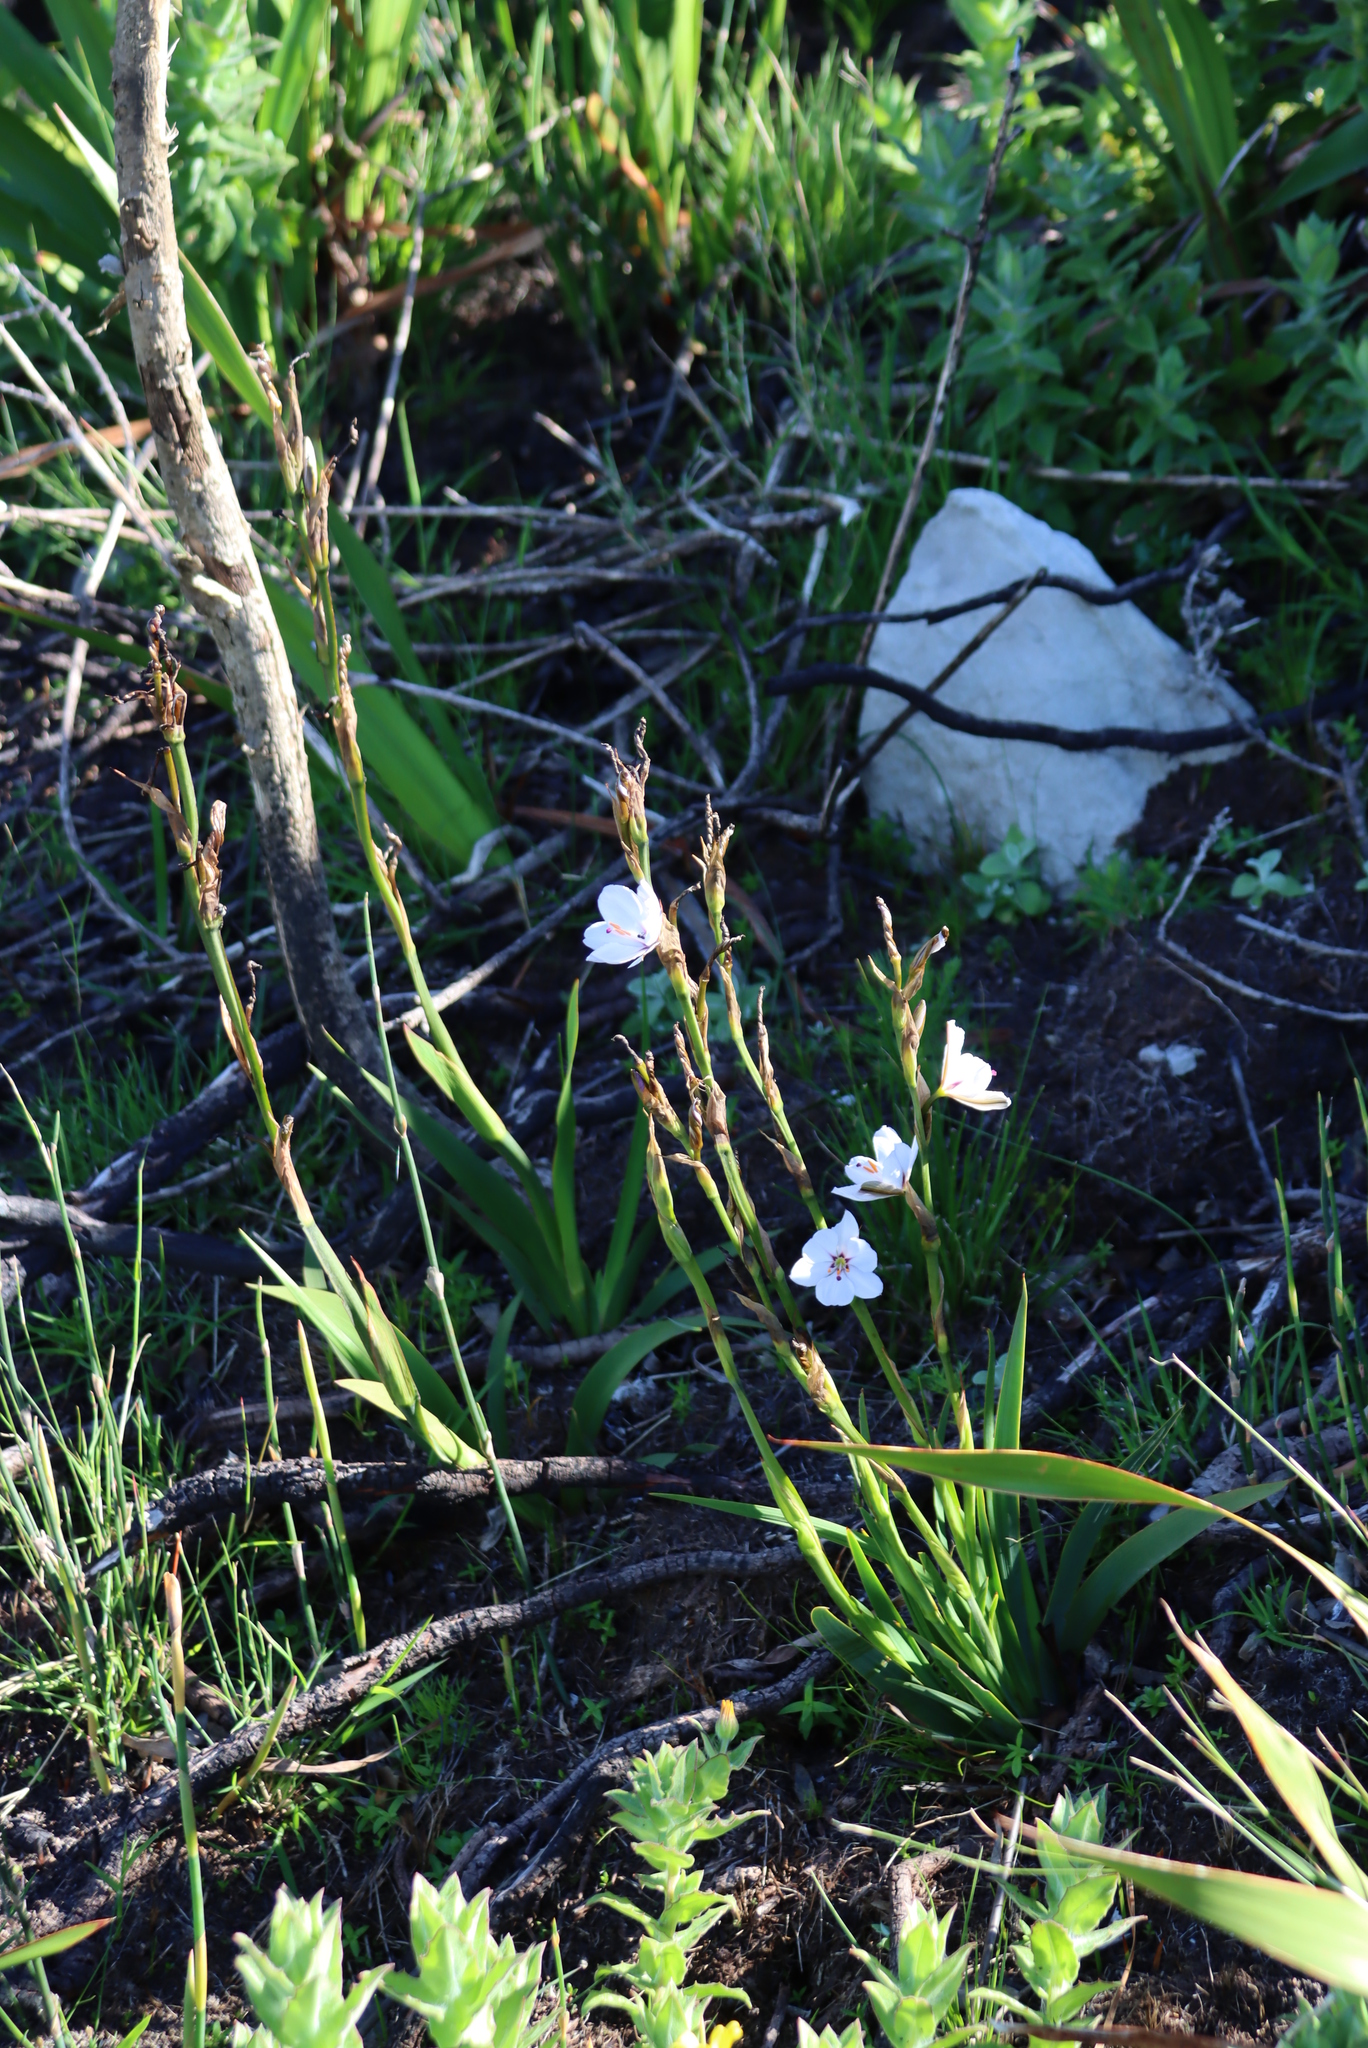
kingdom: Plantae
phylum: Tracheophyta
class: Liliopsida
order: Asparagales
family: Iridaceae
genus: Aristea
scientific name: Aristea spiralis
